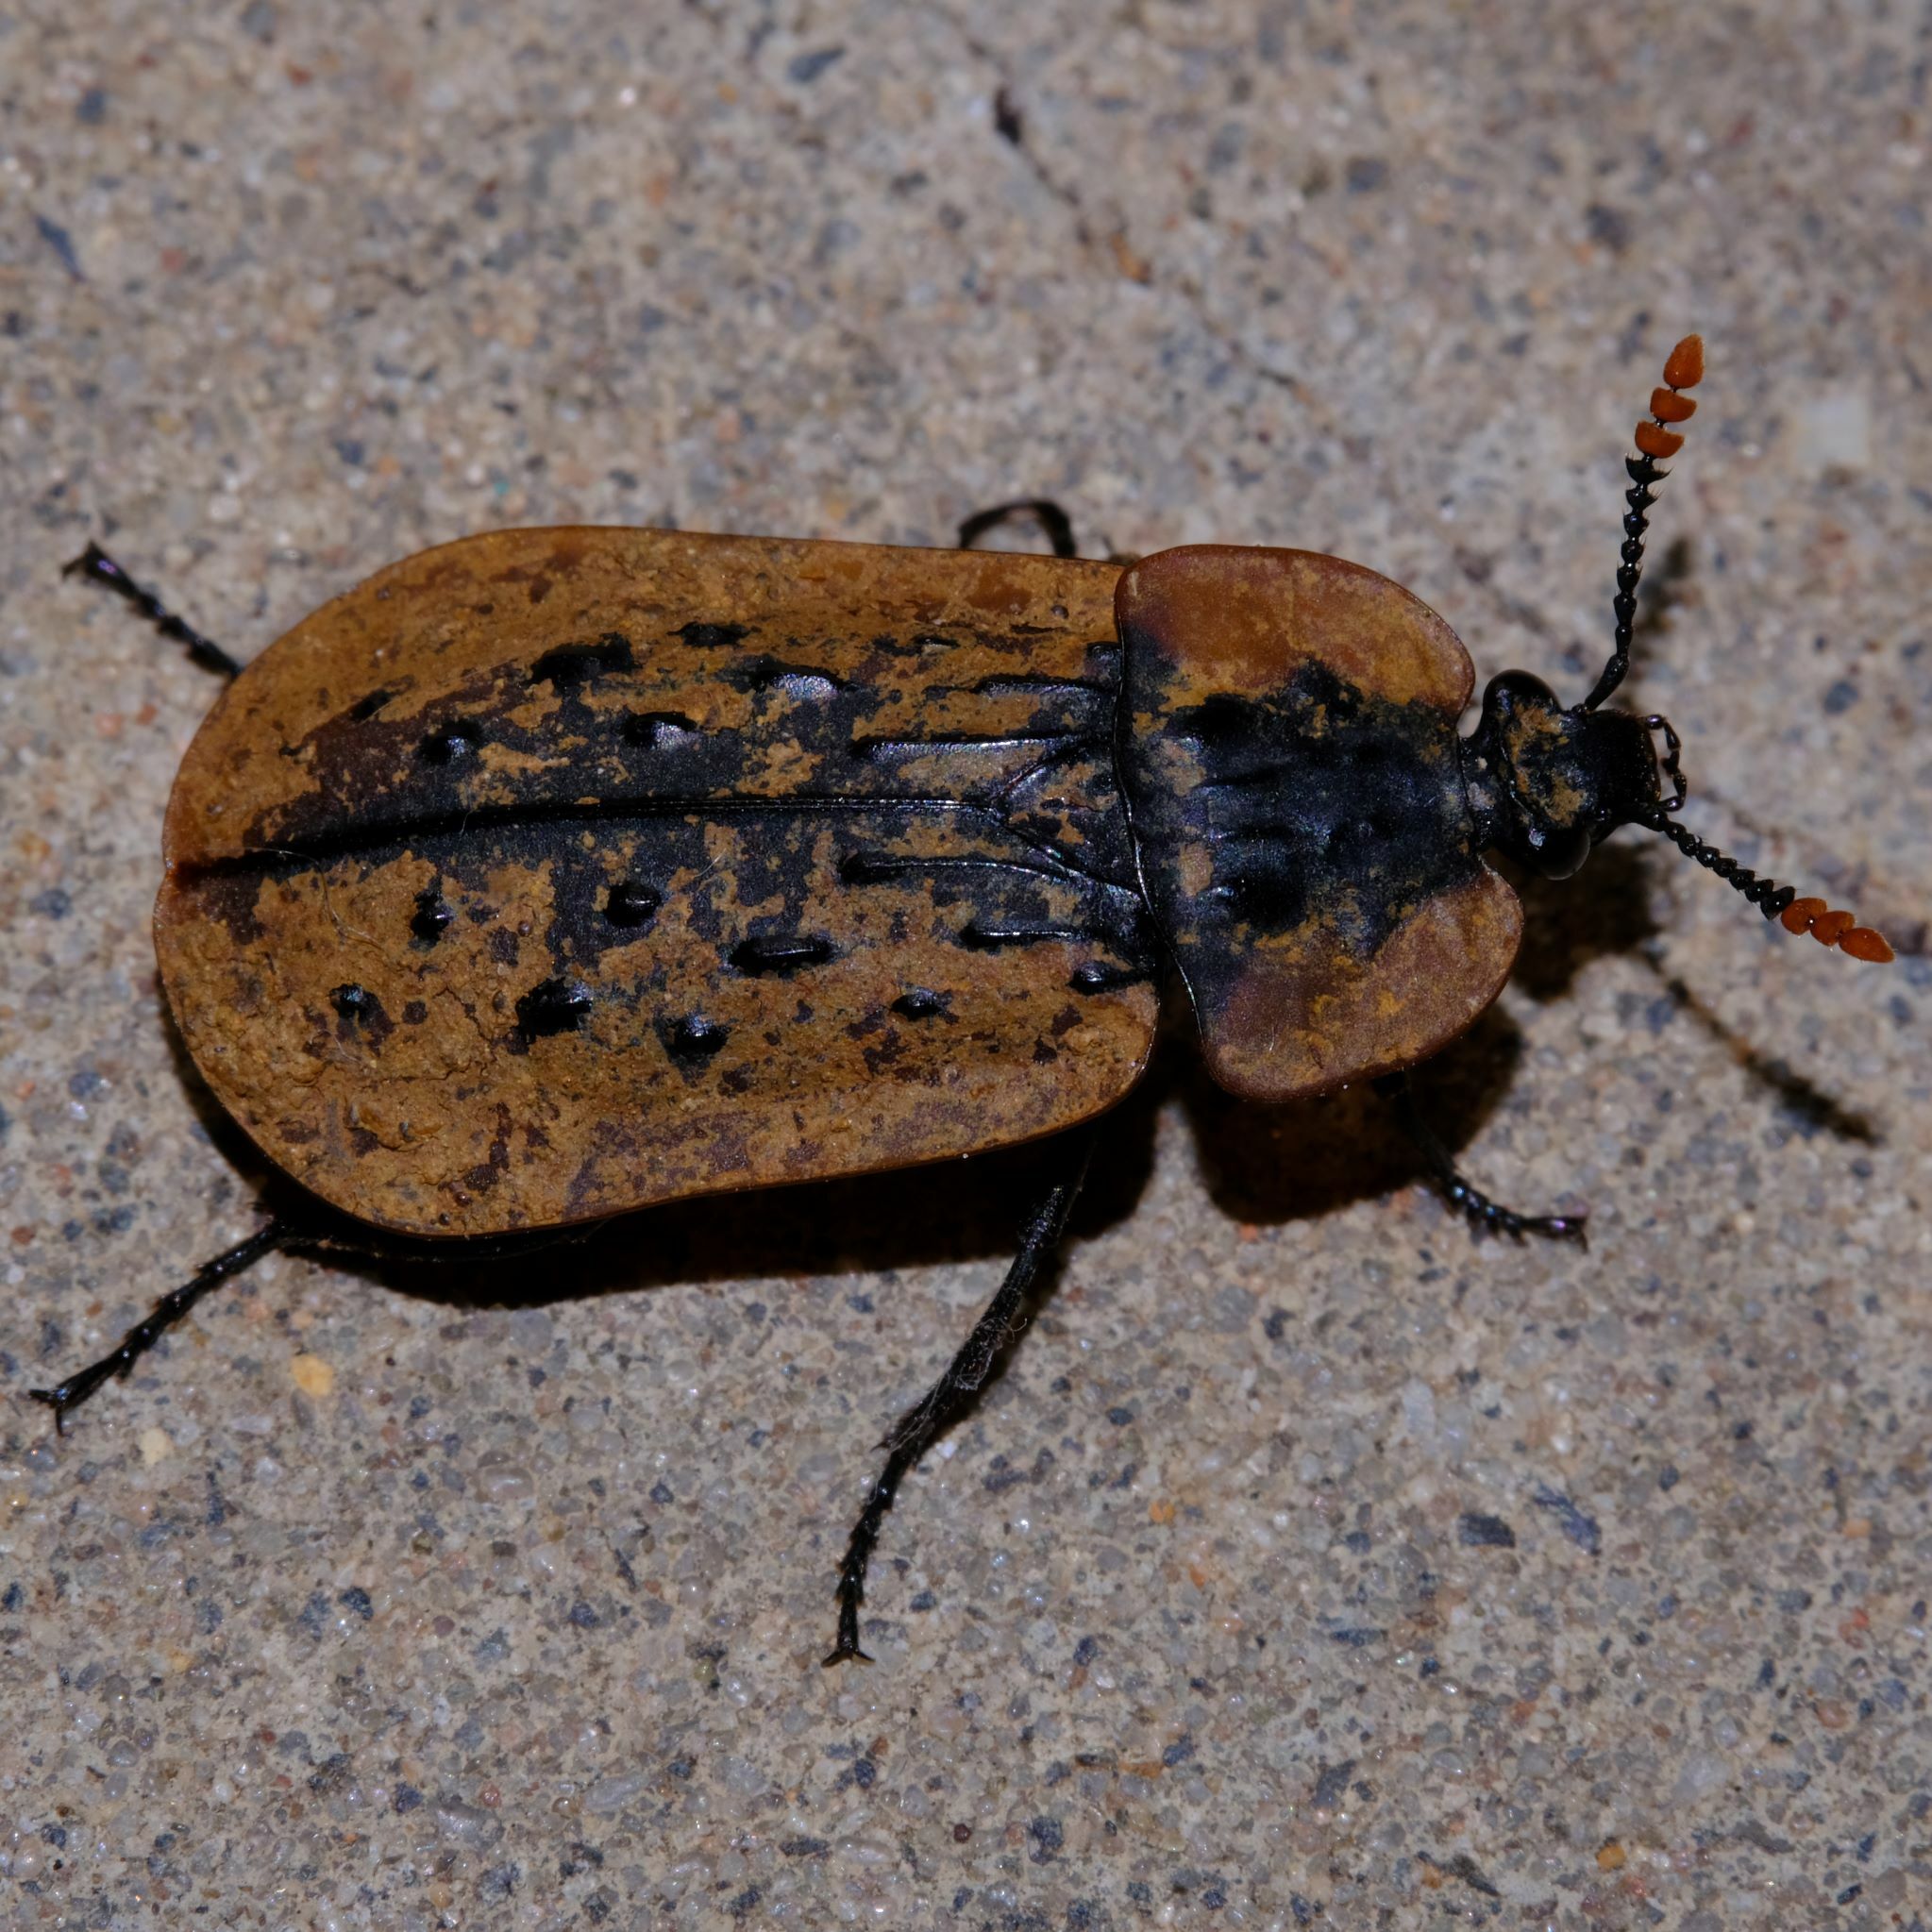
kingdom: Animalia
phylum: Arthropoda
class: Insecta
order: Coleoptera
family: Staphylinidae
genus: Ptomaphila
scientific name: Ptomaphila lacrymosa
